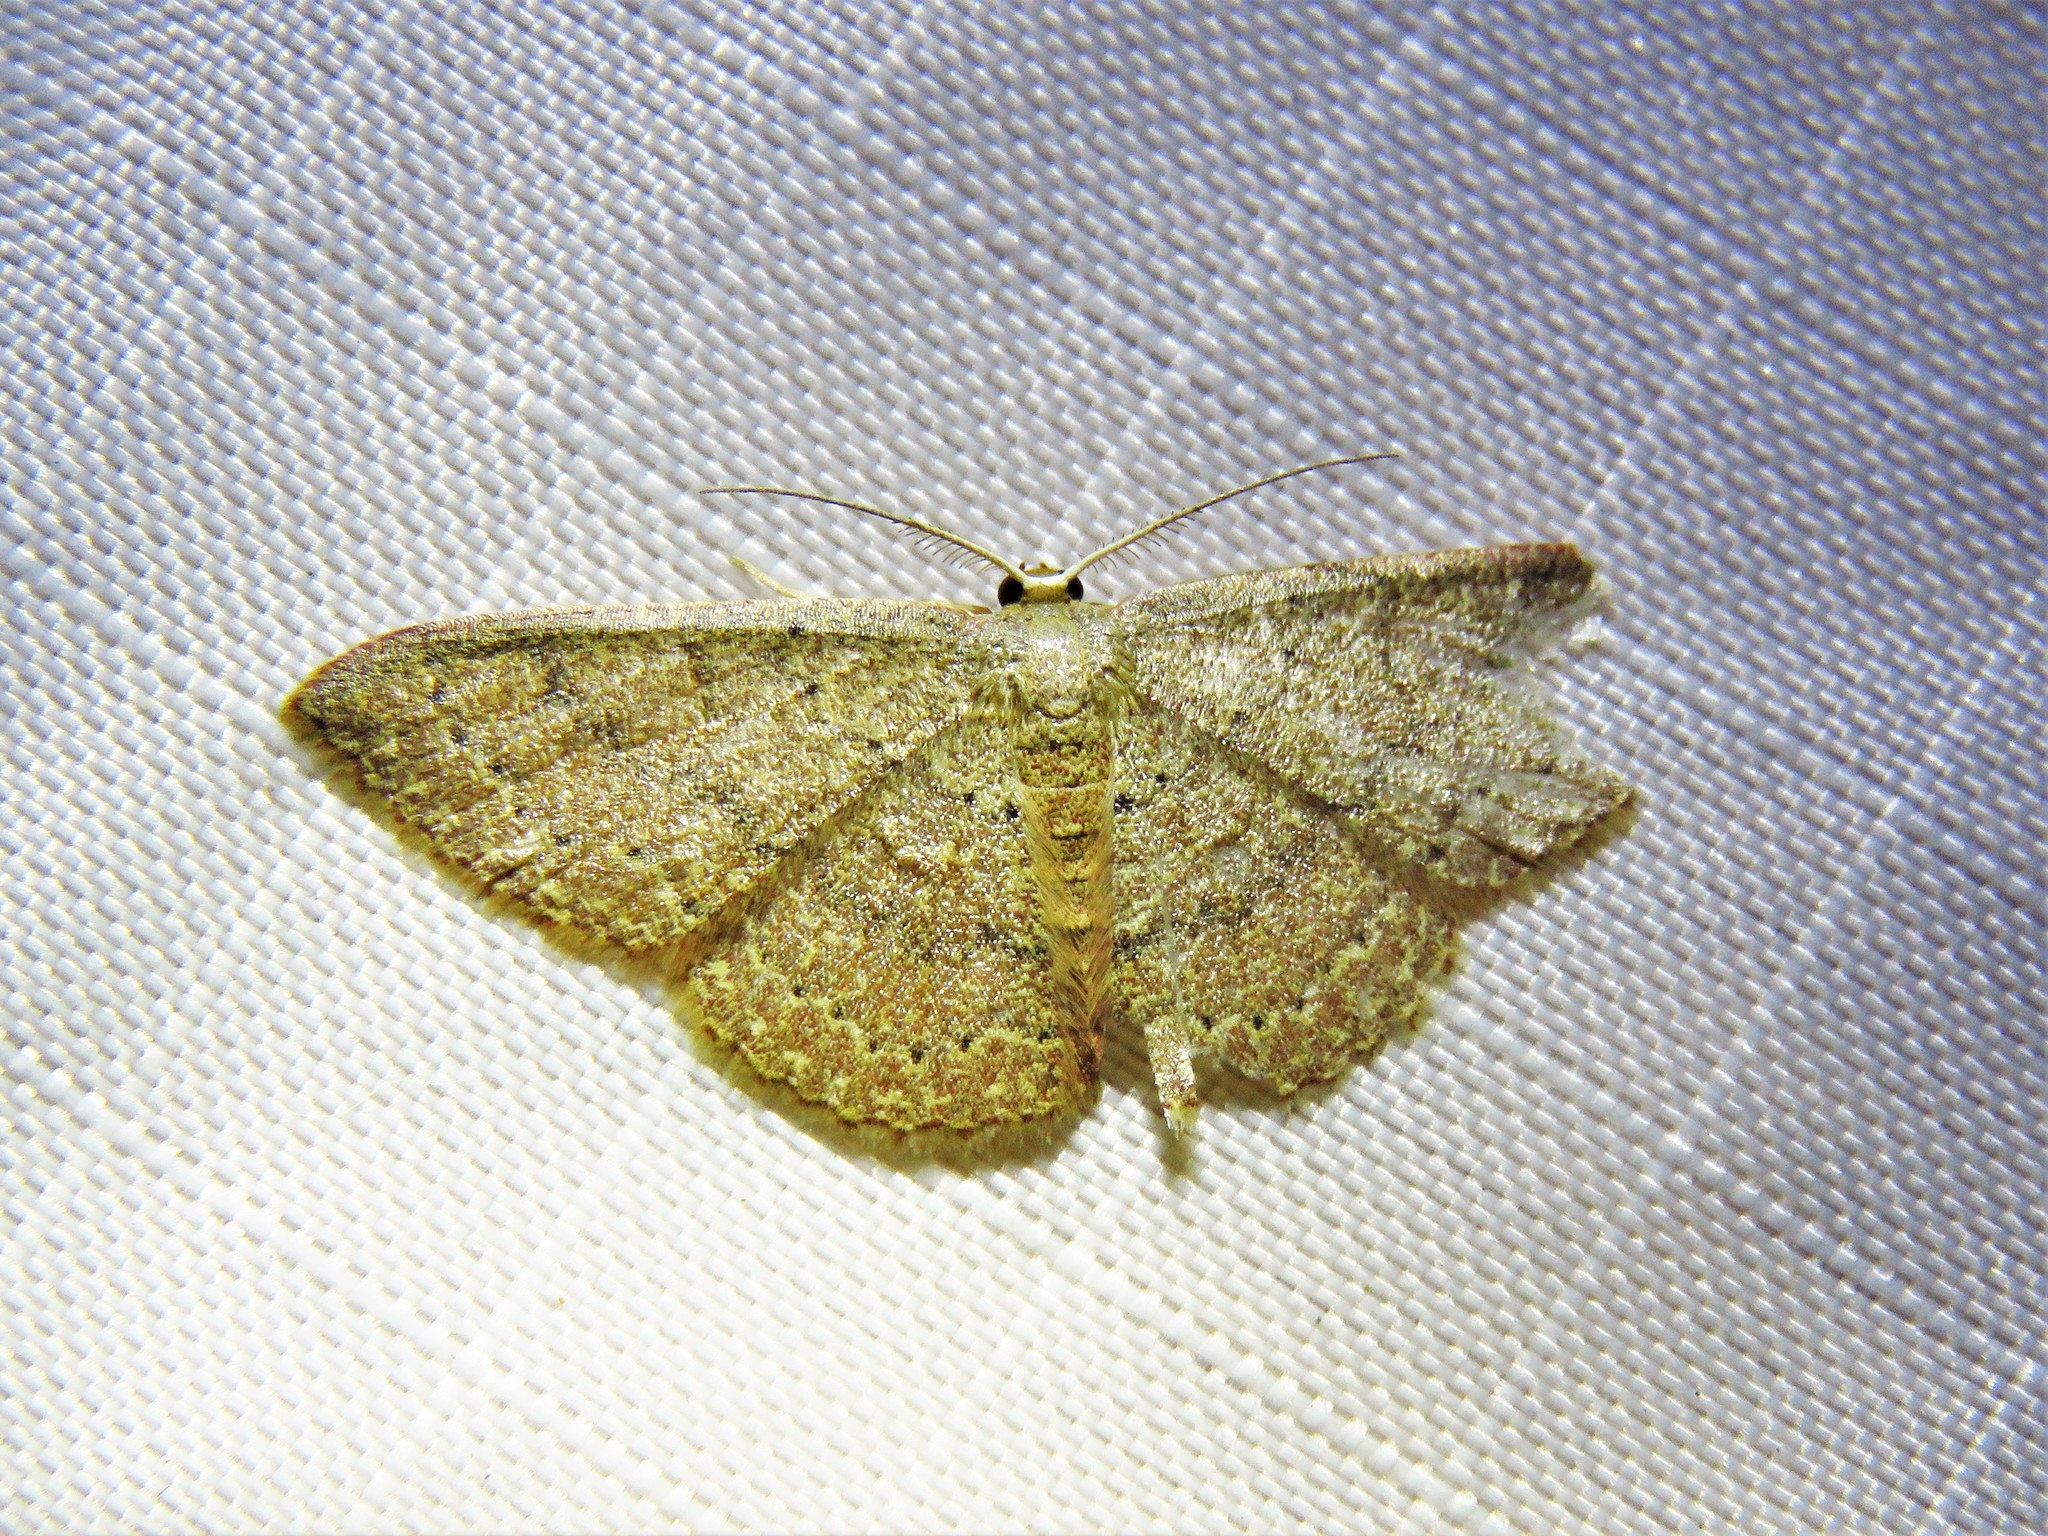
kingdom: Animalia
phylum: Arthropoda
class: Insecta
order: Lepidoptera
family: Geometridae
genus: Pleuroprucha
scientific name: Pleuroprucha insulsaria
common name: Common tan wave
